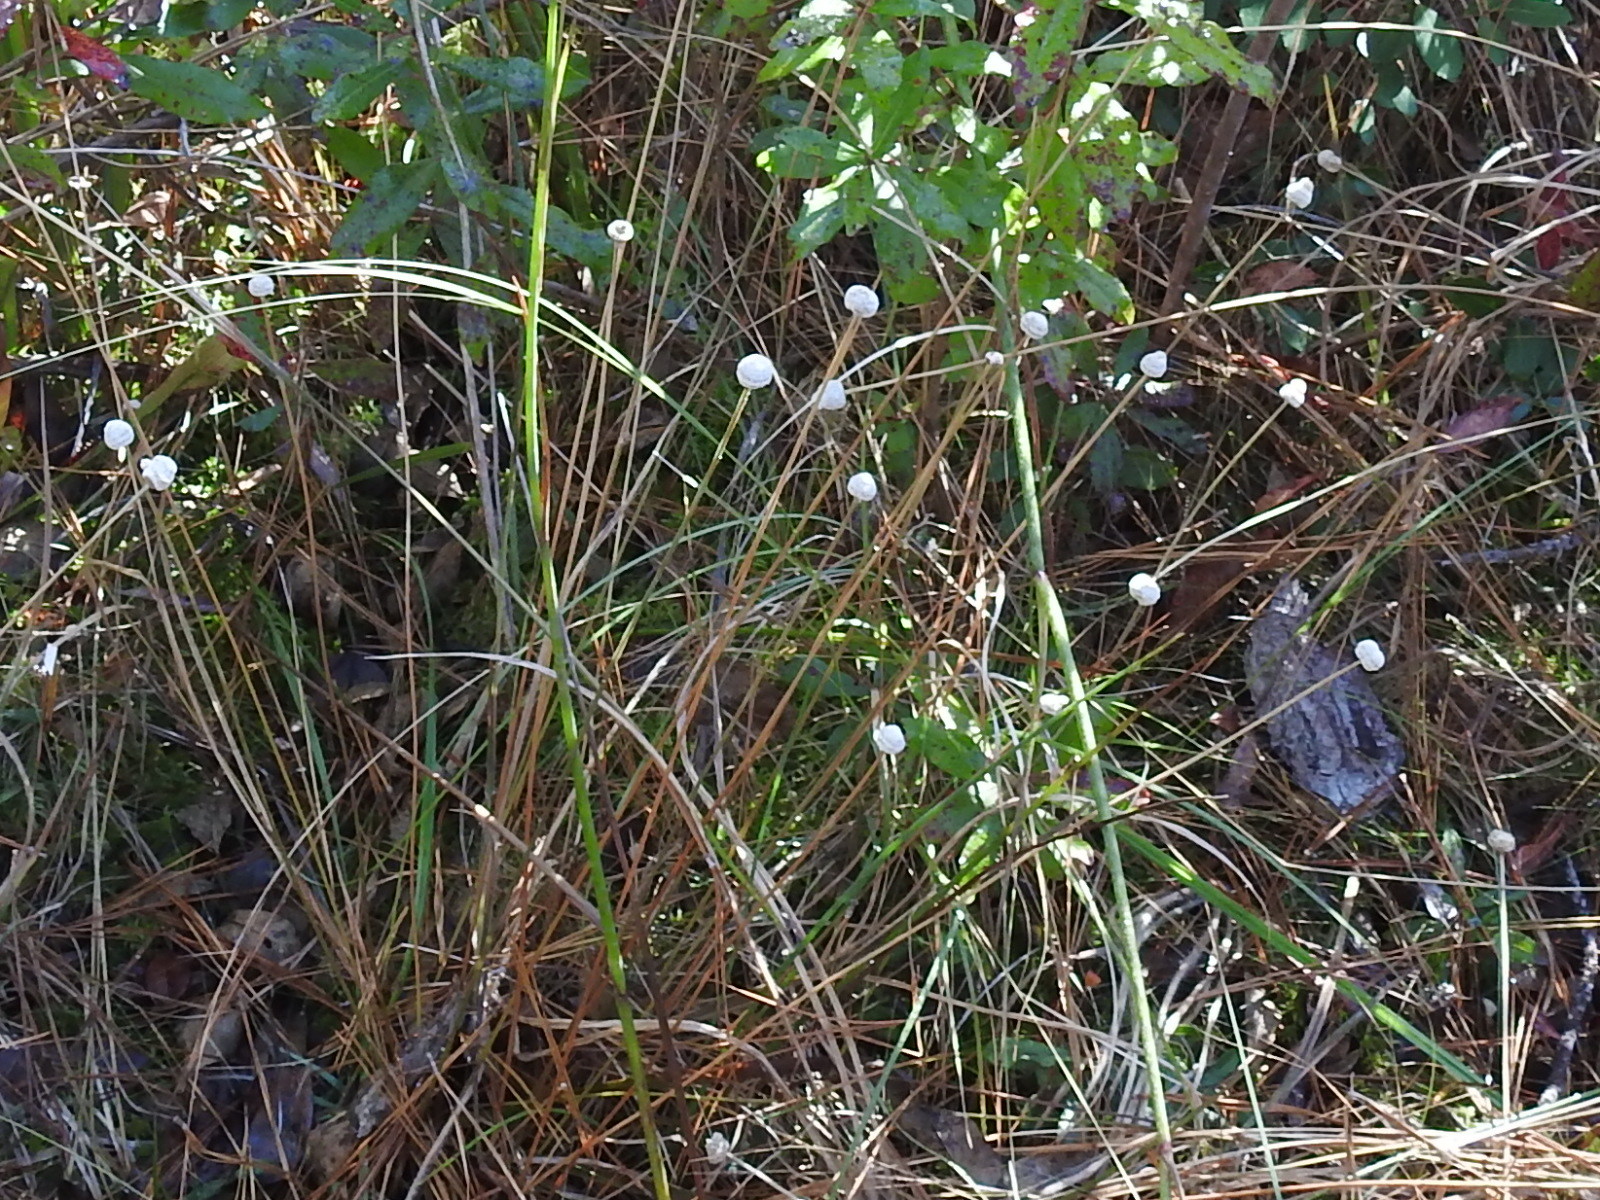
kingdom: Plantae
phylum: Tracheophyta
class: Liliopsida
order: Poales
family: Eriocaulaceae
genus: Eriocaulon
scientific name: Eriocaulon decangulare
